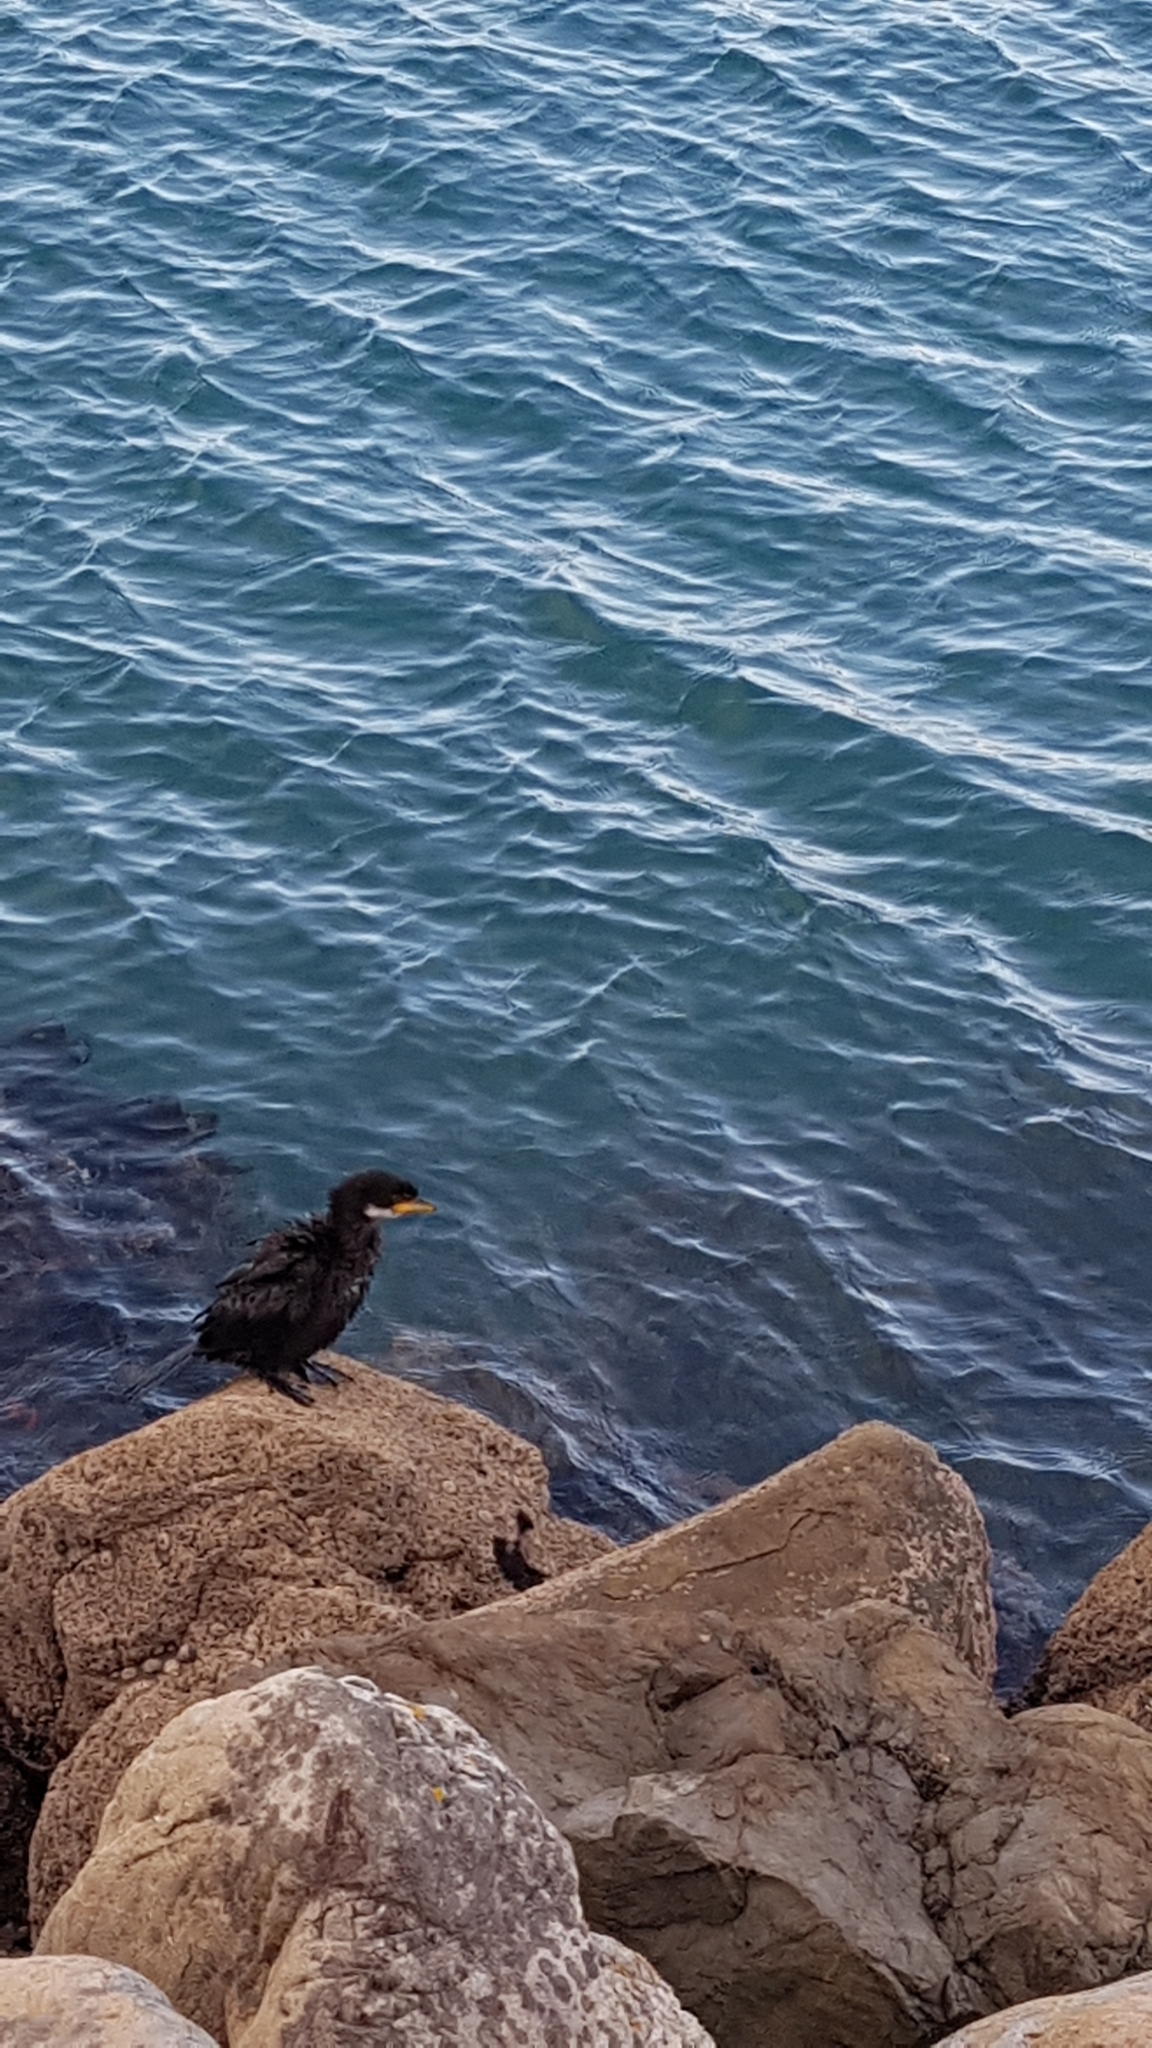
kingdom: Animalia
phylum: Chordata
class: Aves
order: Suliformes
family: Phalacrocoracidae
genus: Microcarbo
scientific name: Microcarbo melanoleucos
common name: Little pied cormorant
